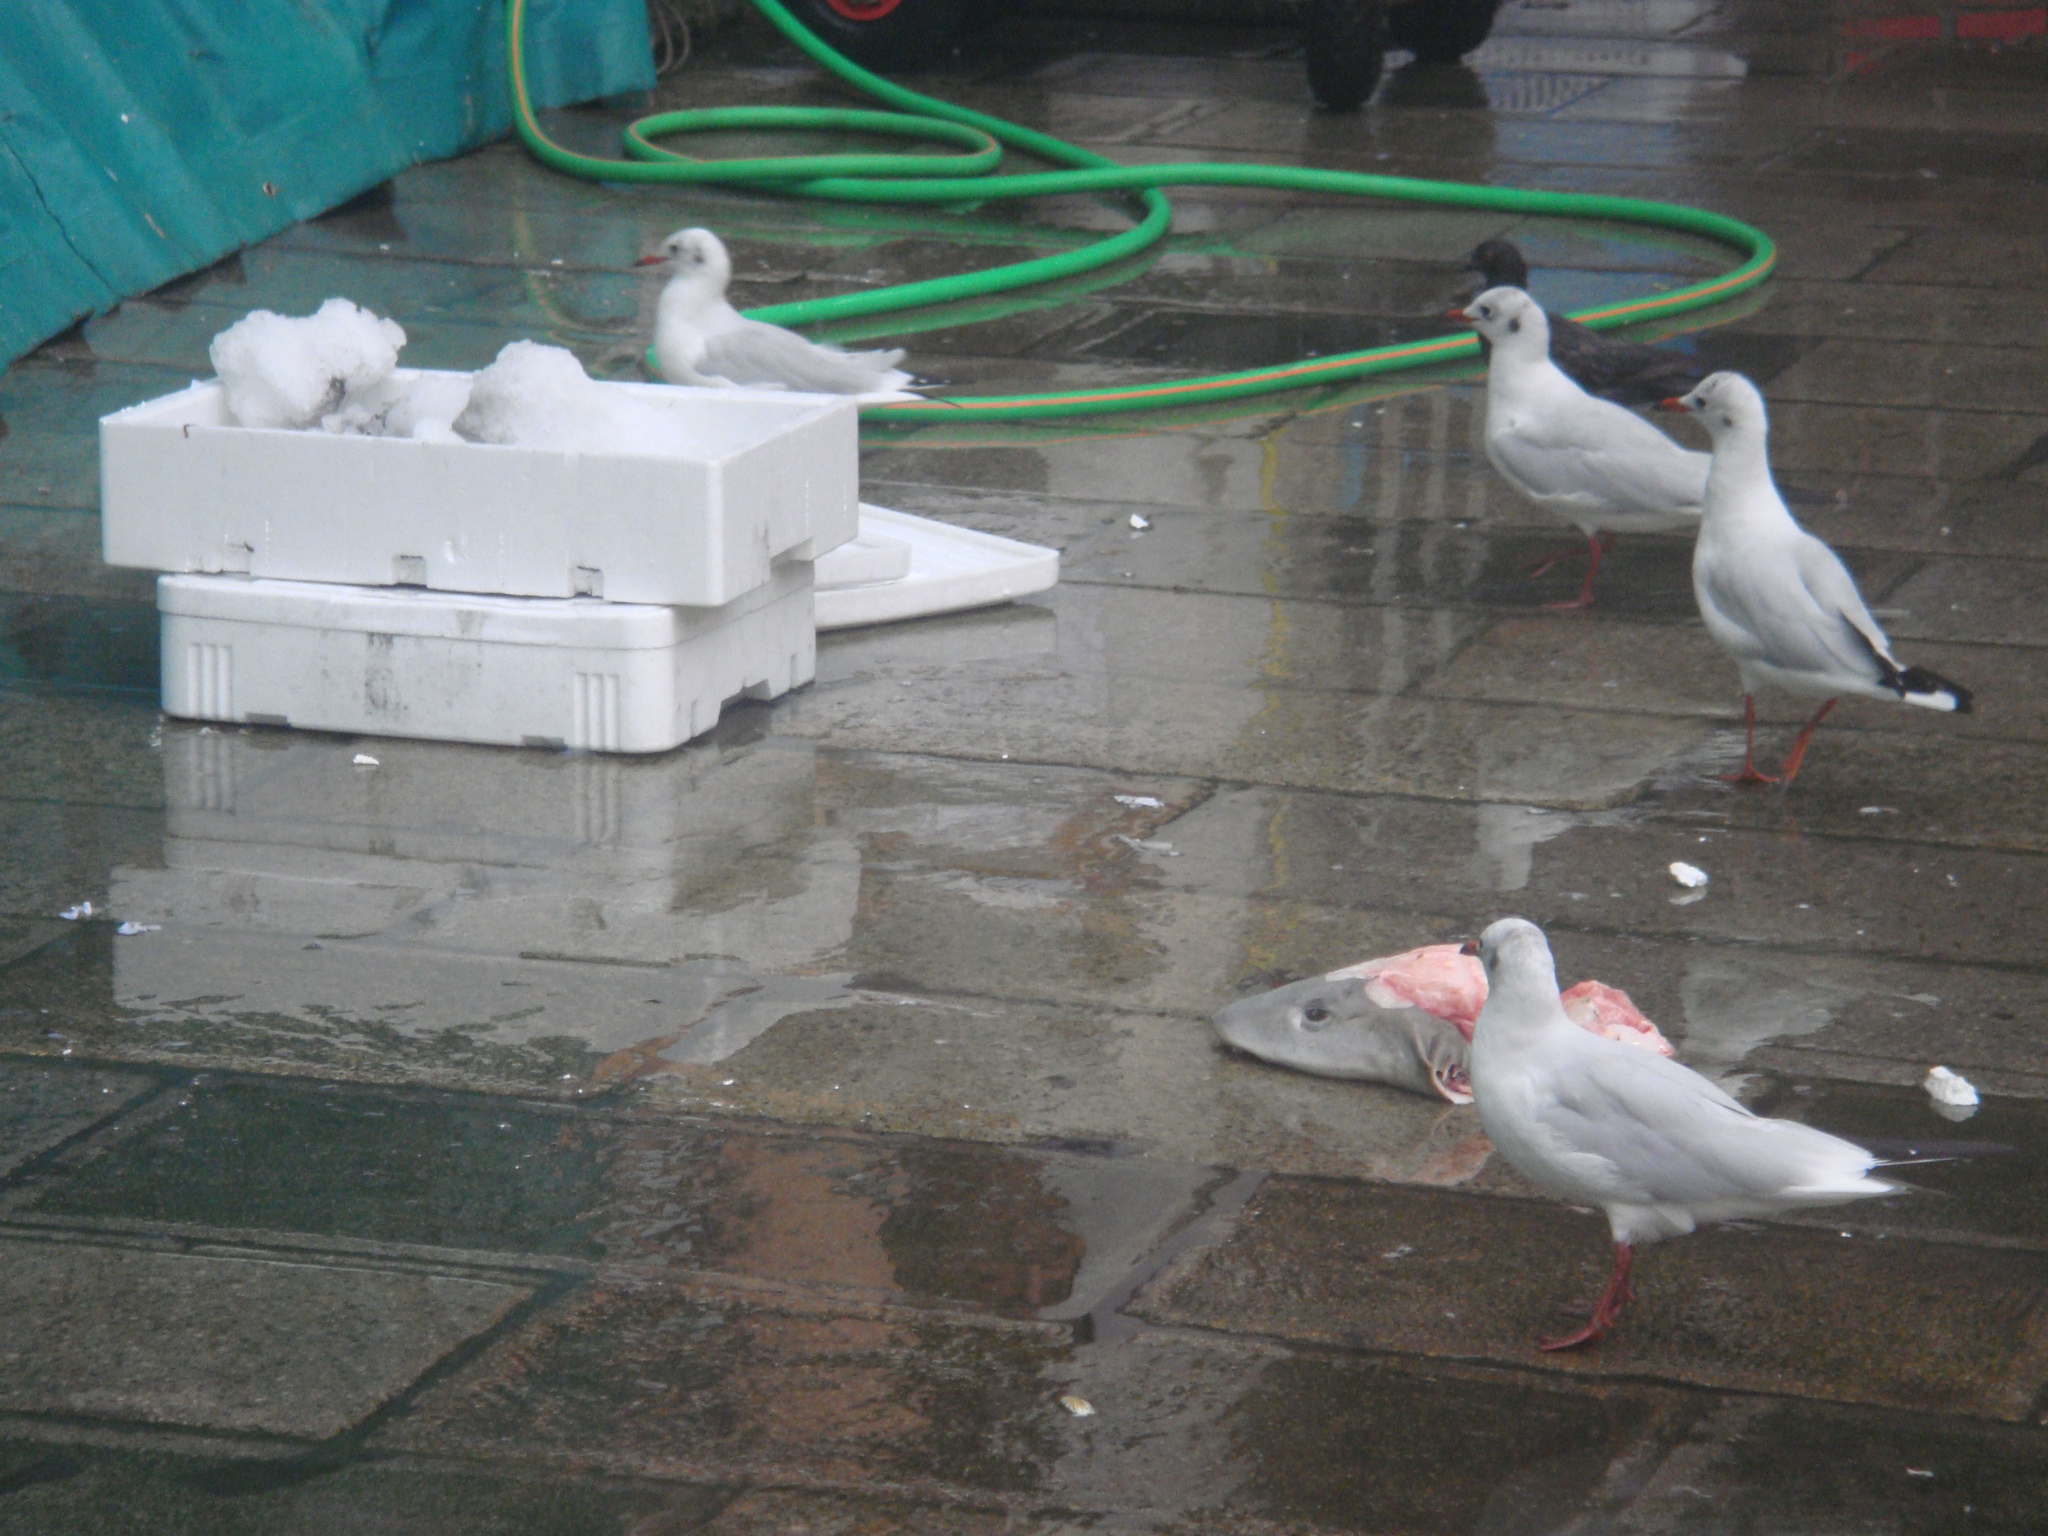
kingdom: Animalia
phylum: Chordata
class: Aves
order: Charadriiformes
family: Laridae
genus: Chroicocephalus
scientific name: Chroicocephalus ridibundus
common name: Black-headed gull
